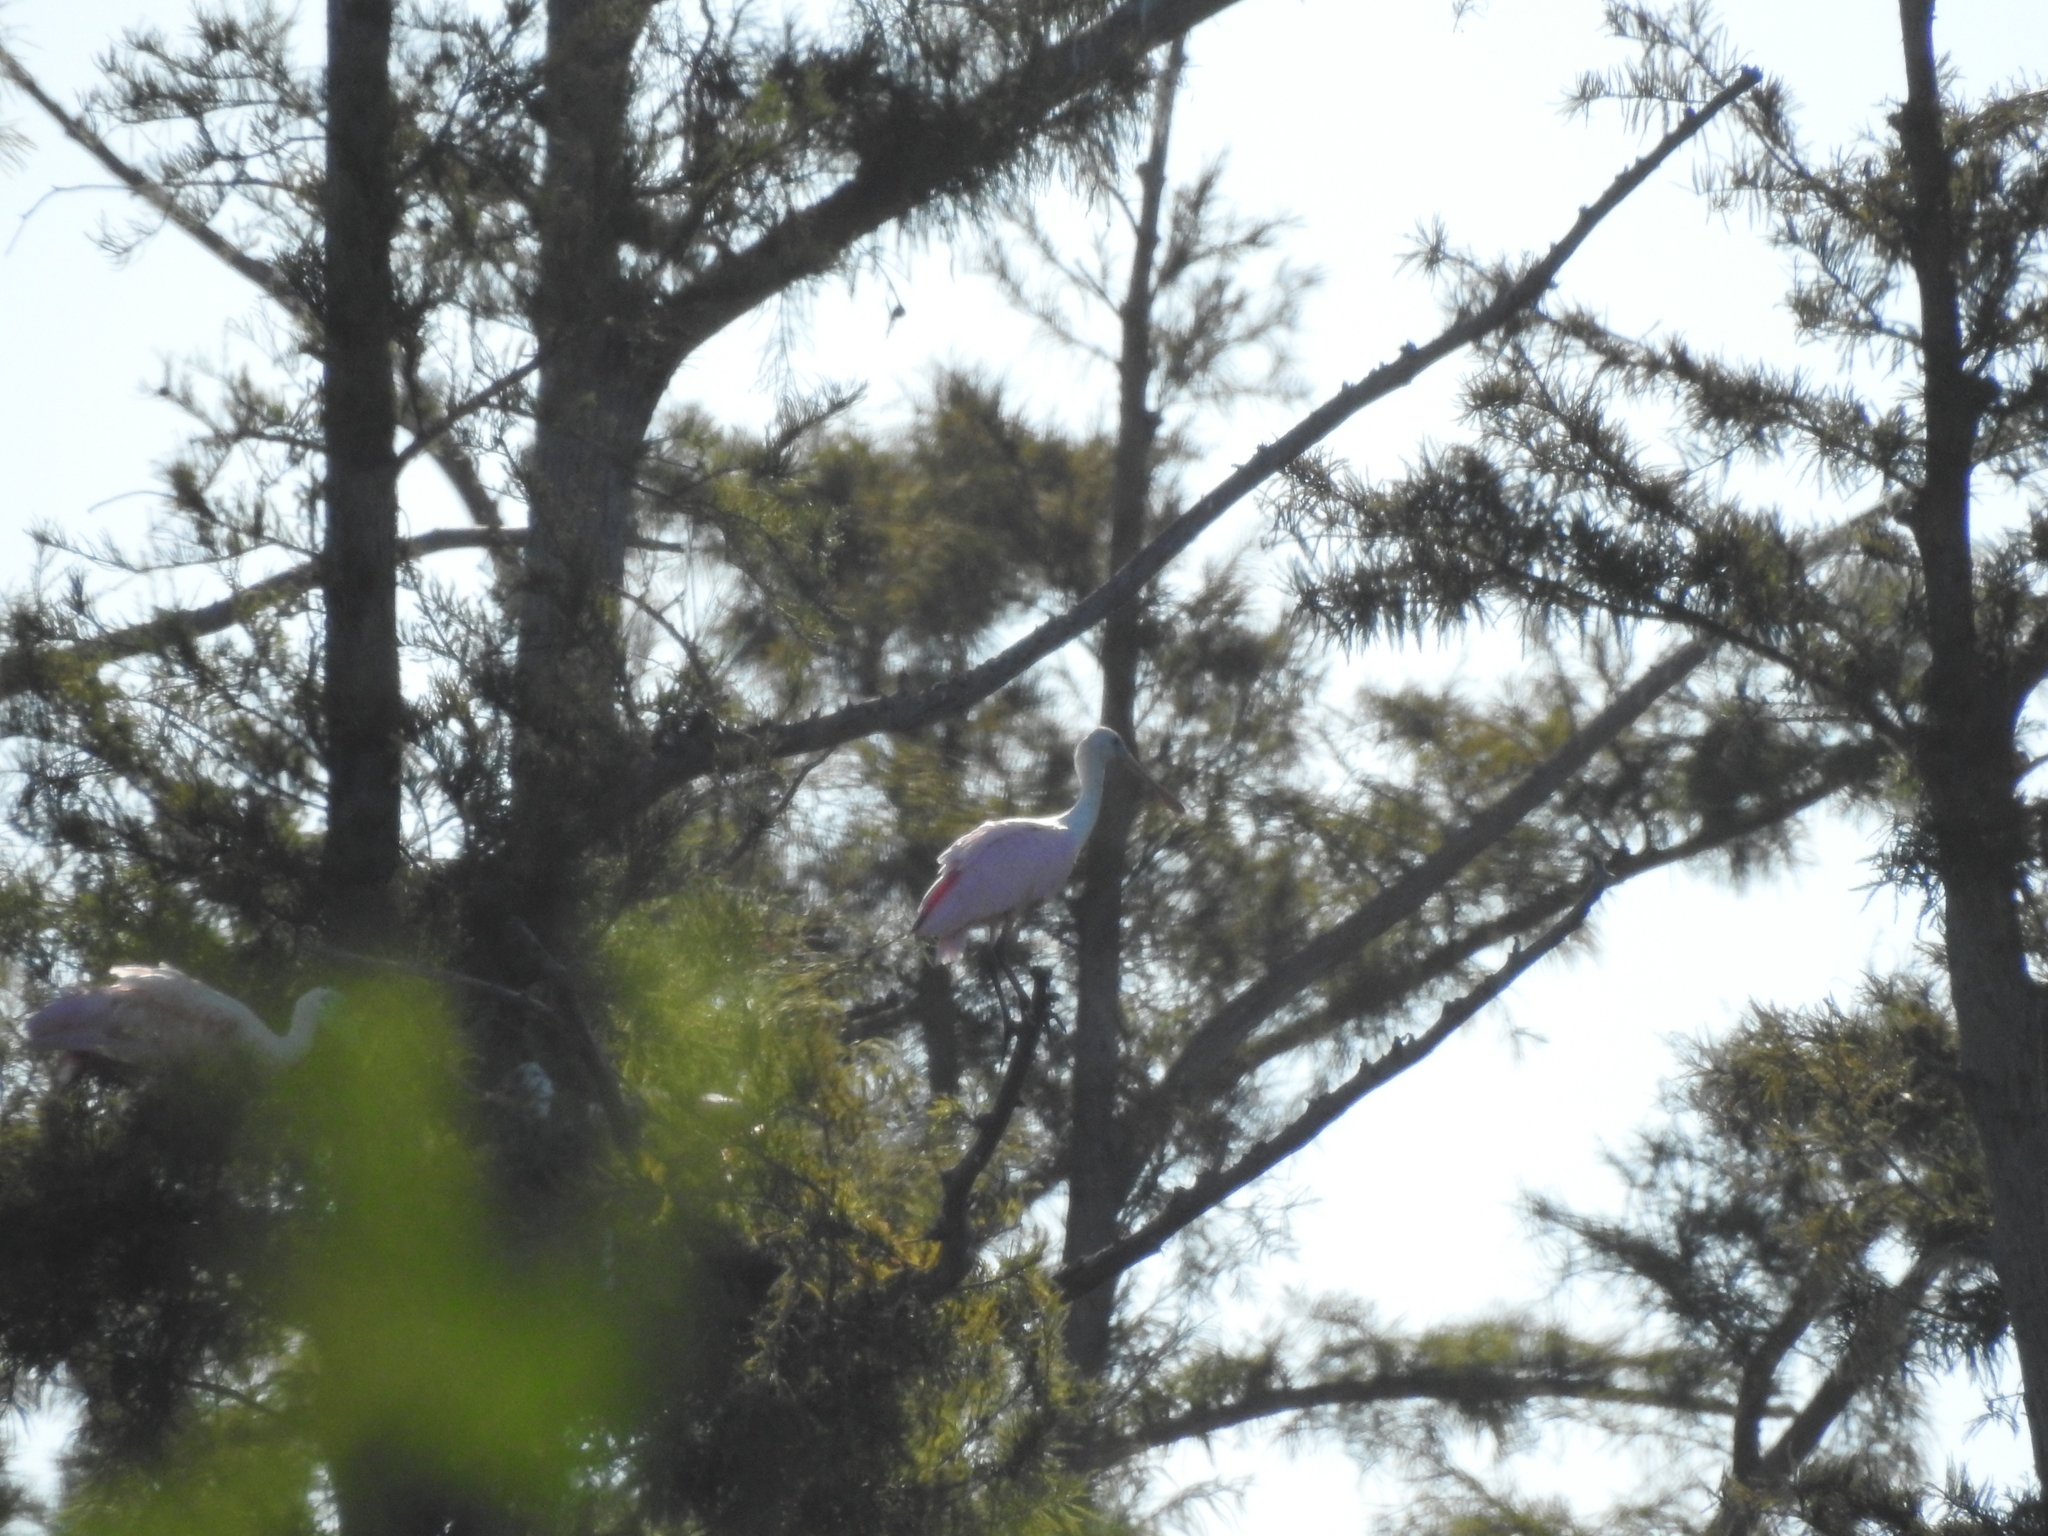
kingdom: Animalia
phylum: Chordata
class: Aves
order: Pelecaniformes
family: Threskiornithidae
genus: Platalea
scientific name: Platalea ajaja
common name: Roseate spoonbill
